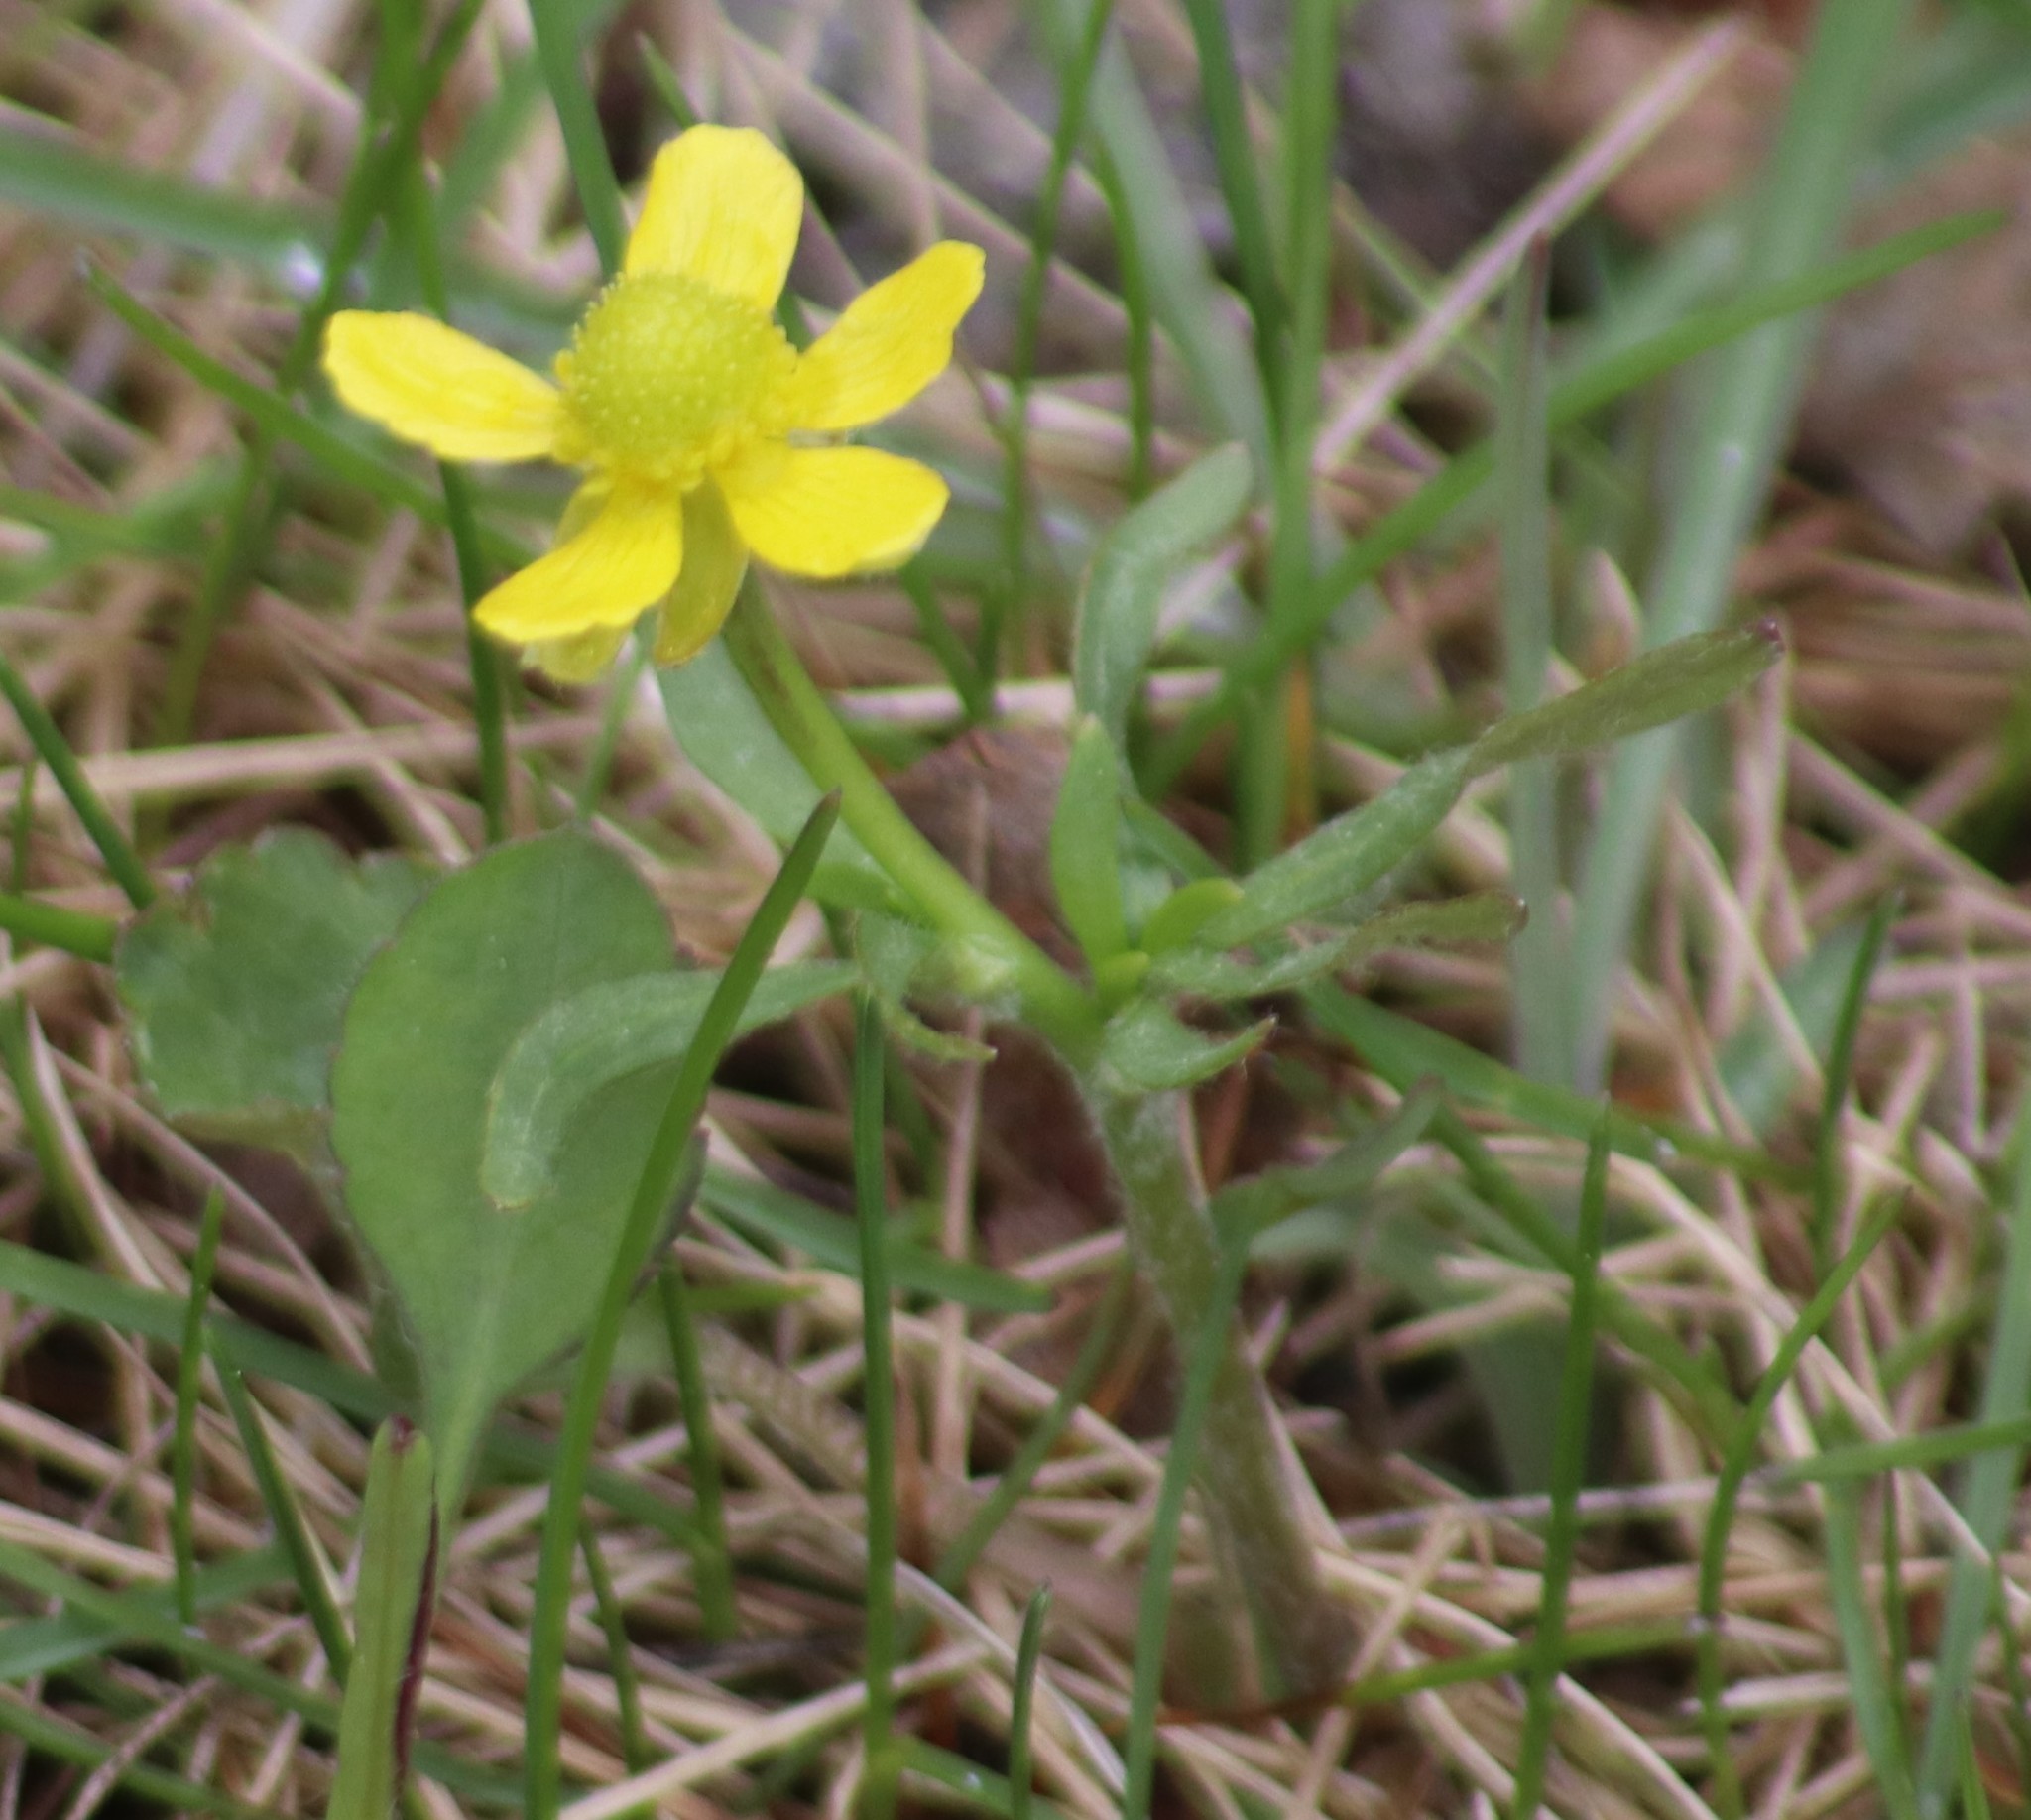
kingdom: Plantae
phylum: Tracheophyta
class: Magnoliopsida
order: Ranunculales
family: Ranunculaceae
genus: Ranunculus
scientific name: Ranunculus rhomboideus
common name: Prairie buttercup
